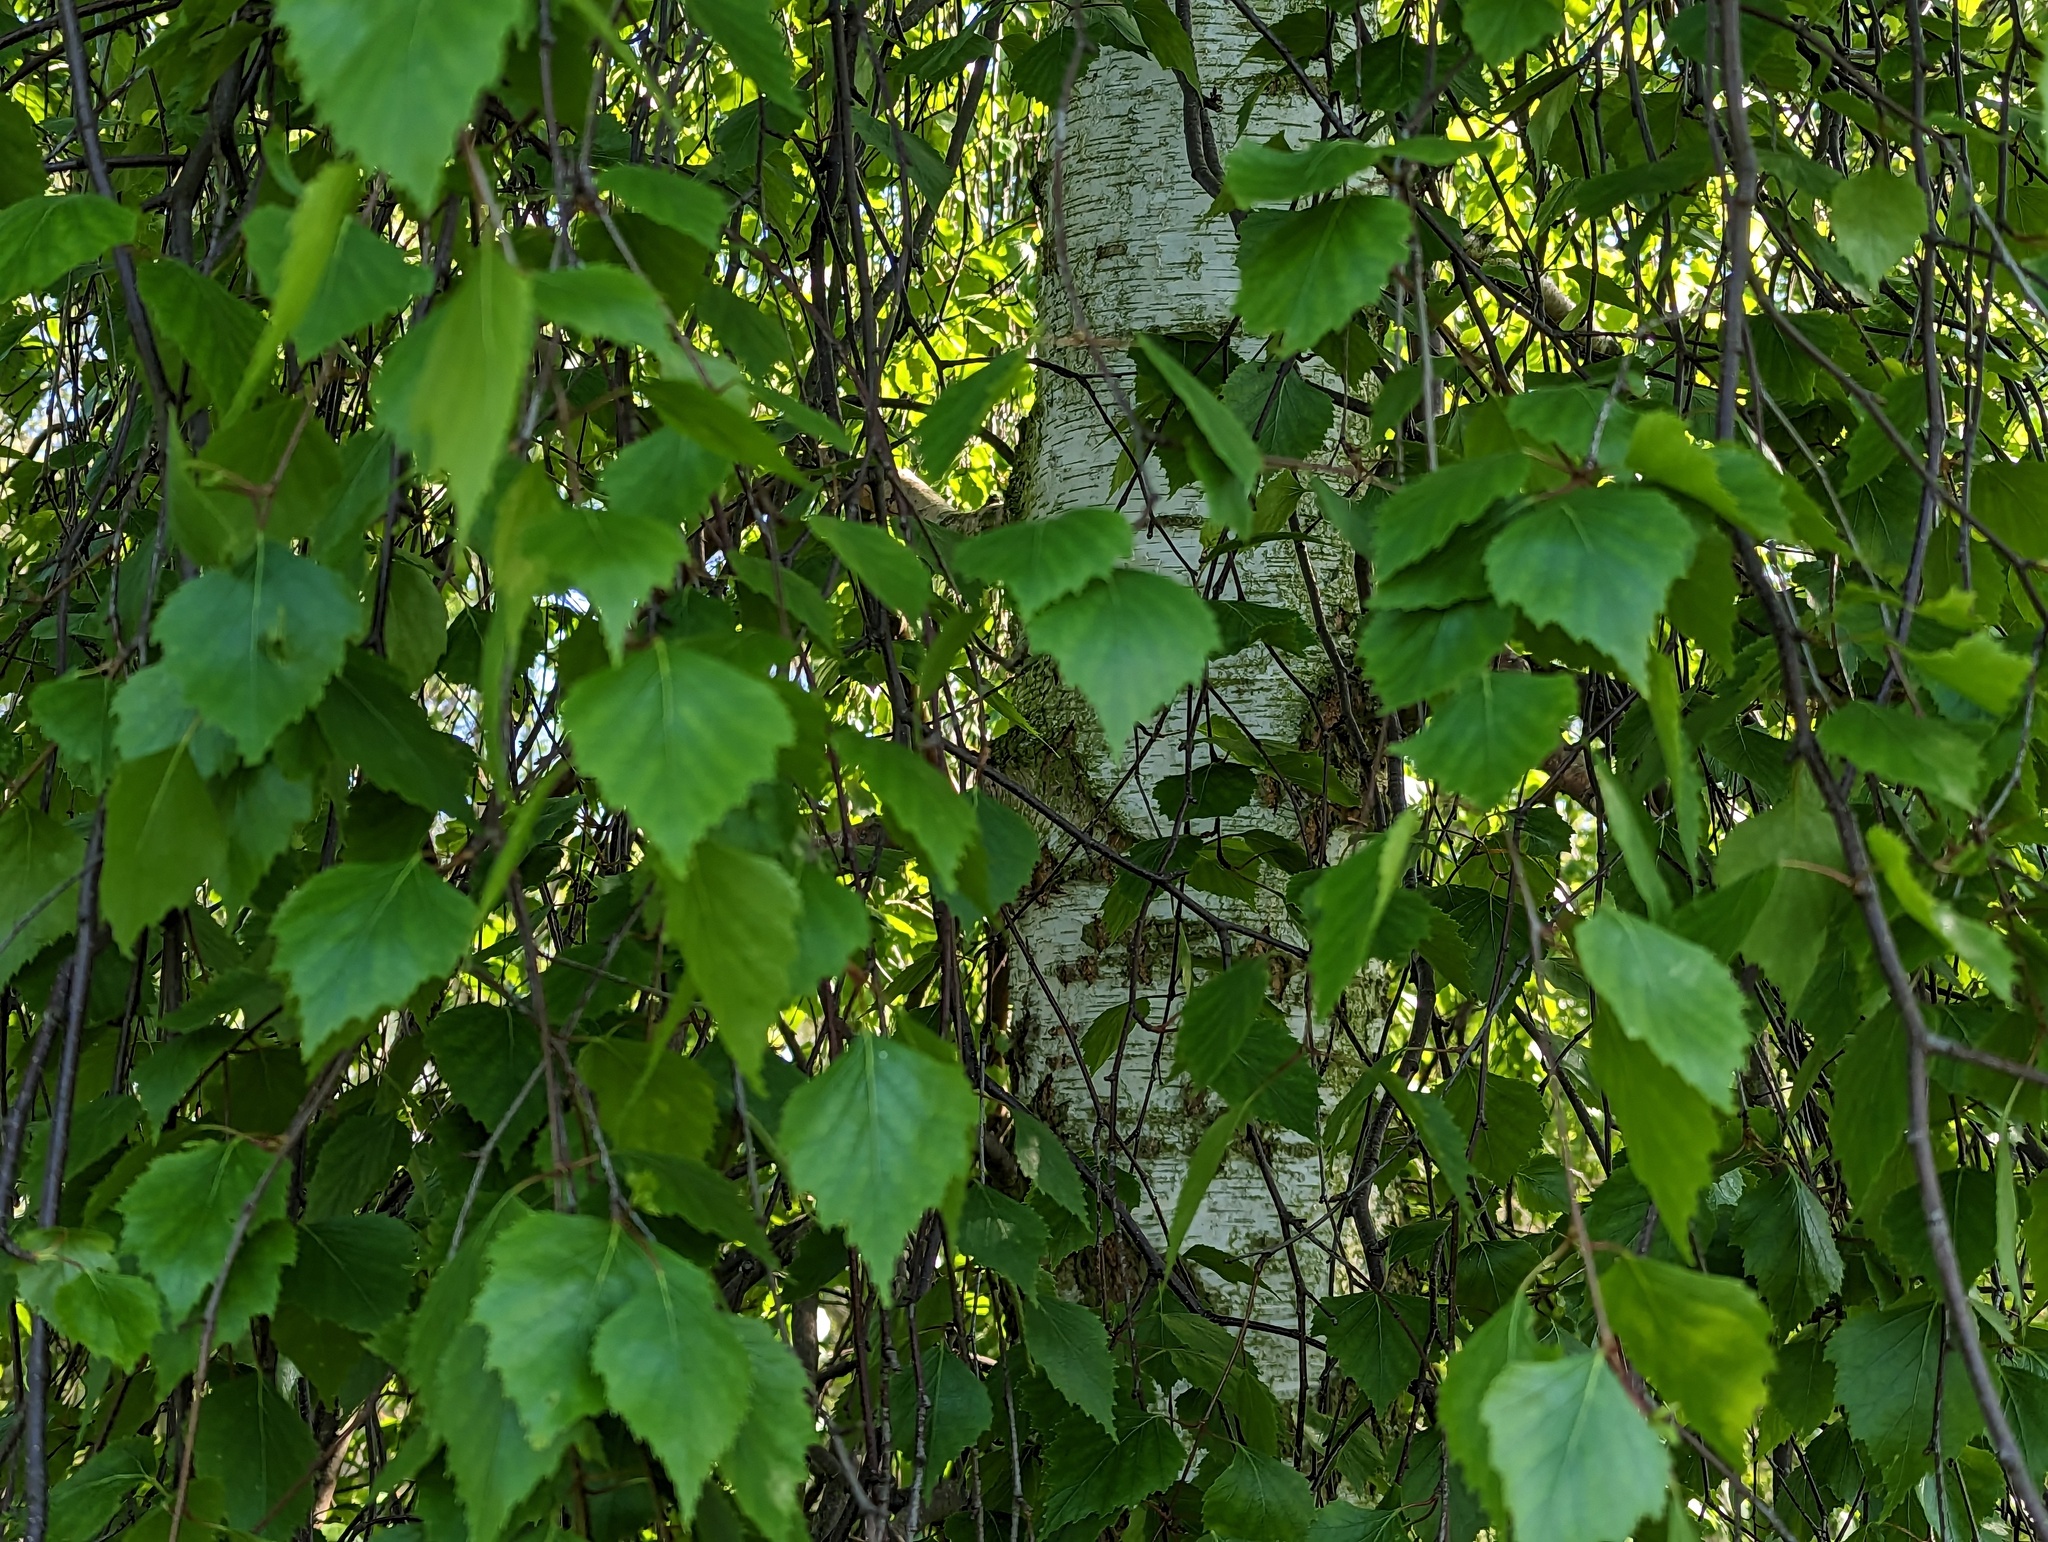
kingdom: Plantae
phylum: Tracheophyta
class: Magnoliopsida
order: Fagales
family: Betulaceae
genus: Betula
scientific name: Betula pendula
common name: Silver birch
